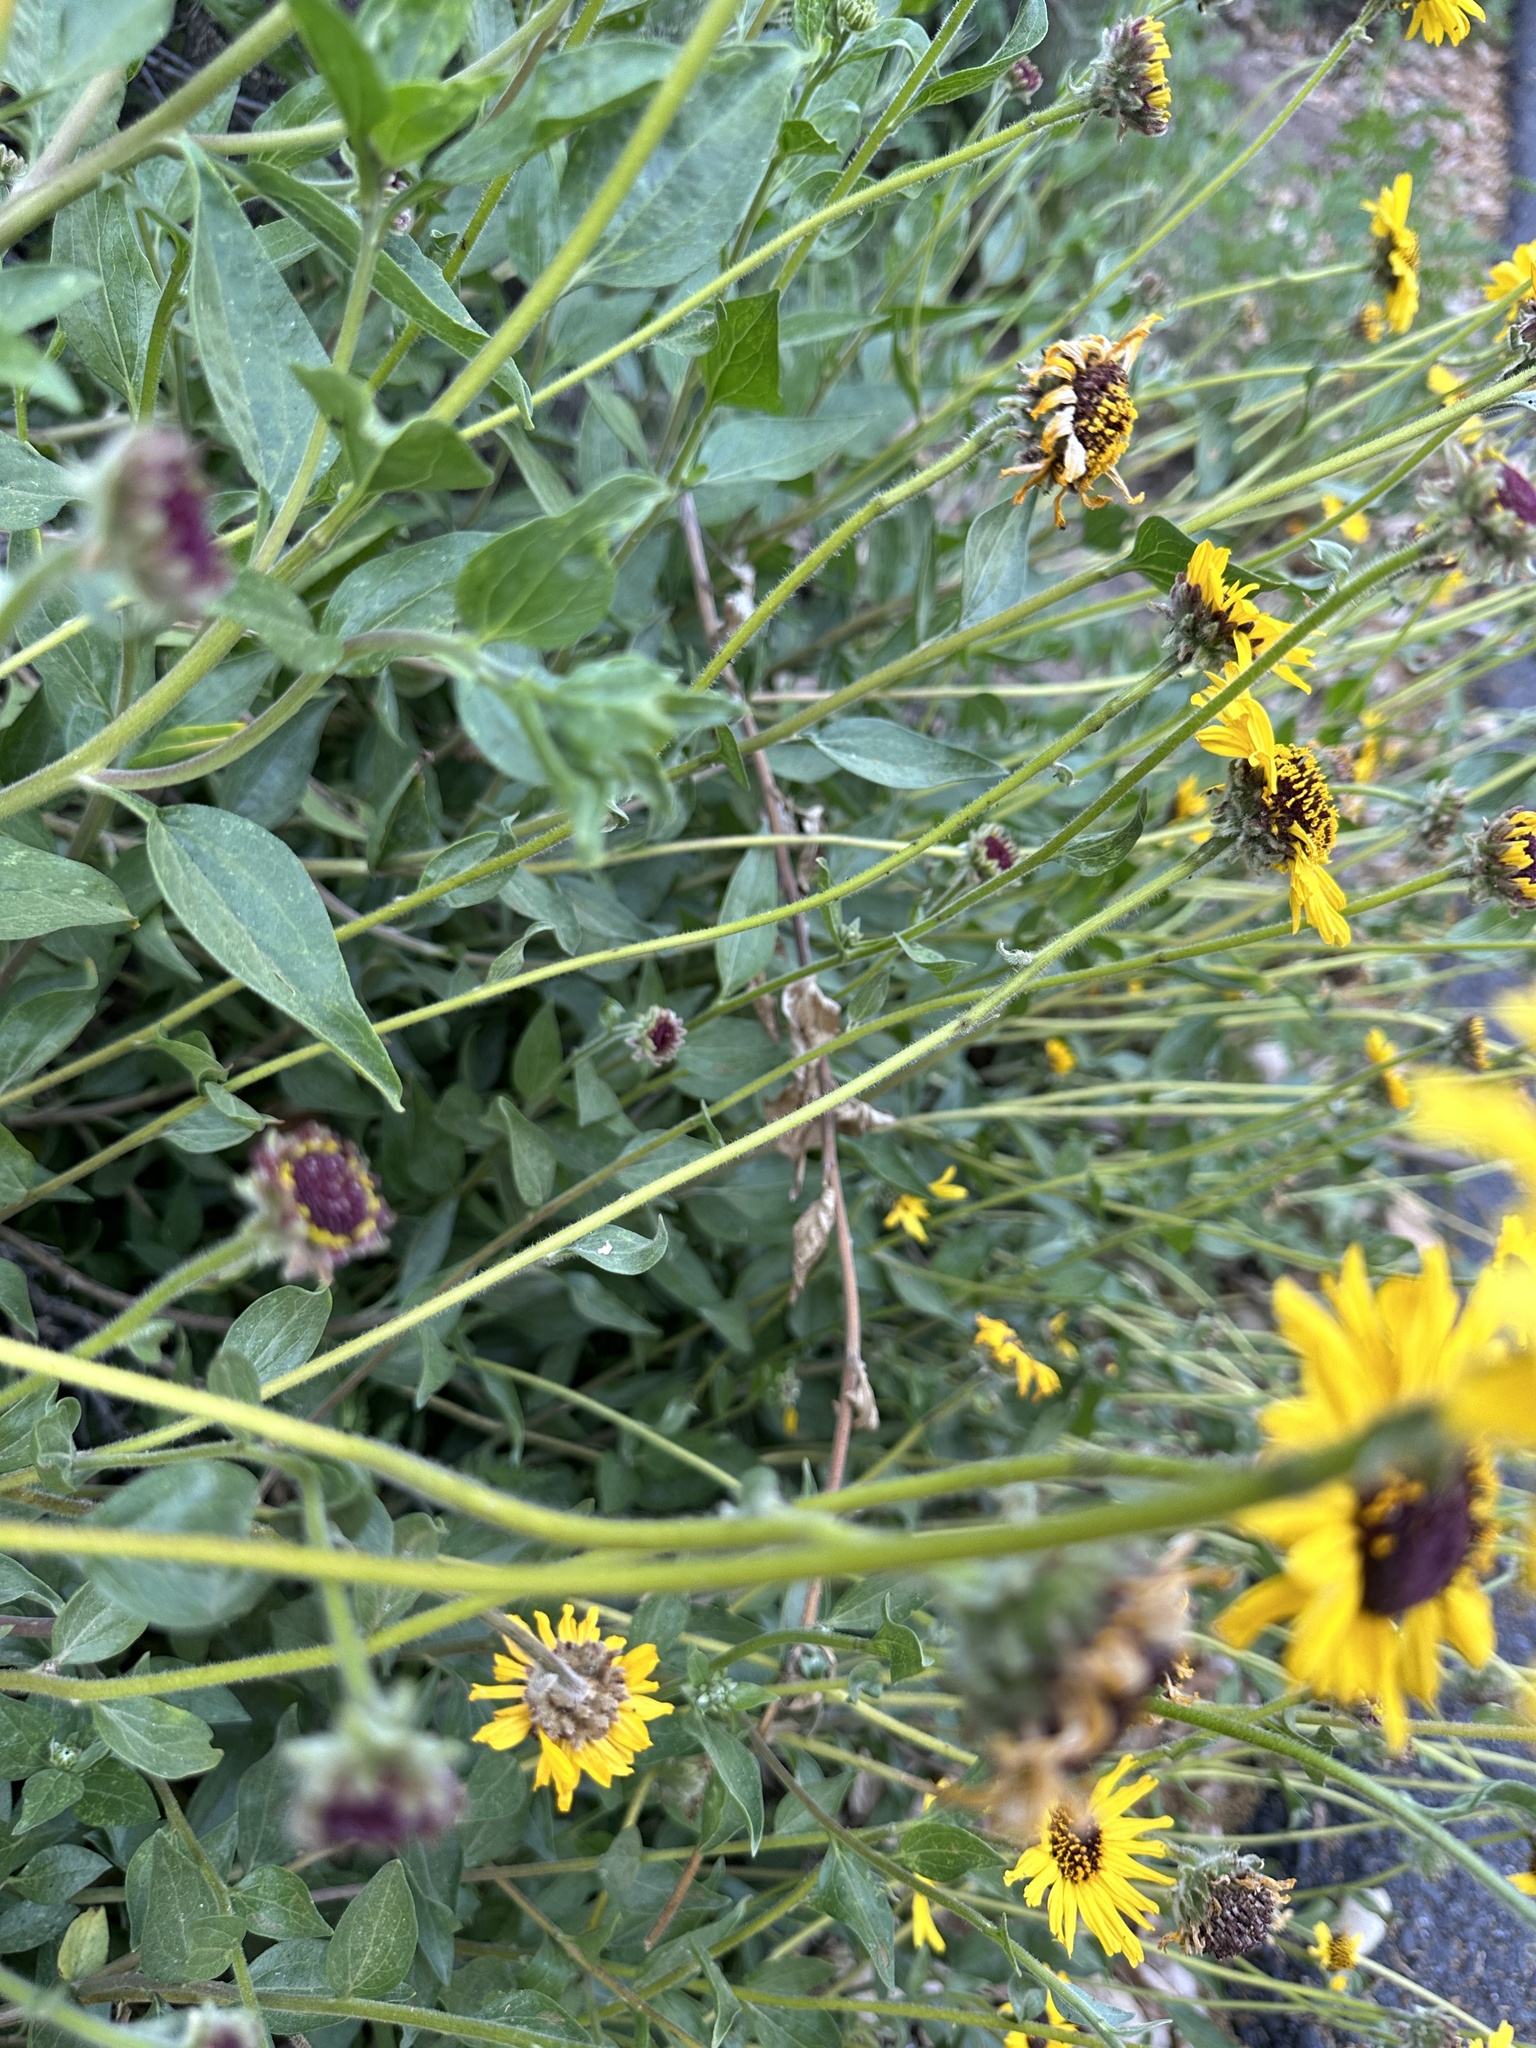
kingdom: Plantae
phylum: Tracheophyta
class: Magnoliopsida
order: Asterales
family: Asteraceae
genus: Encelia
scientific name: Encelia californica
